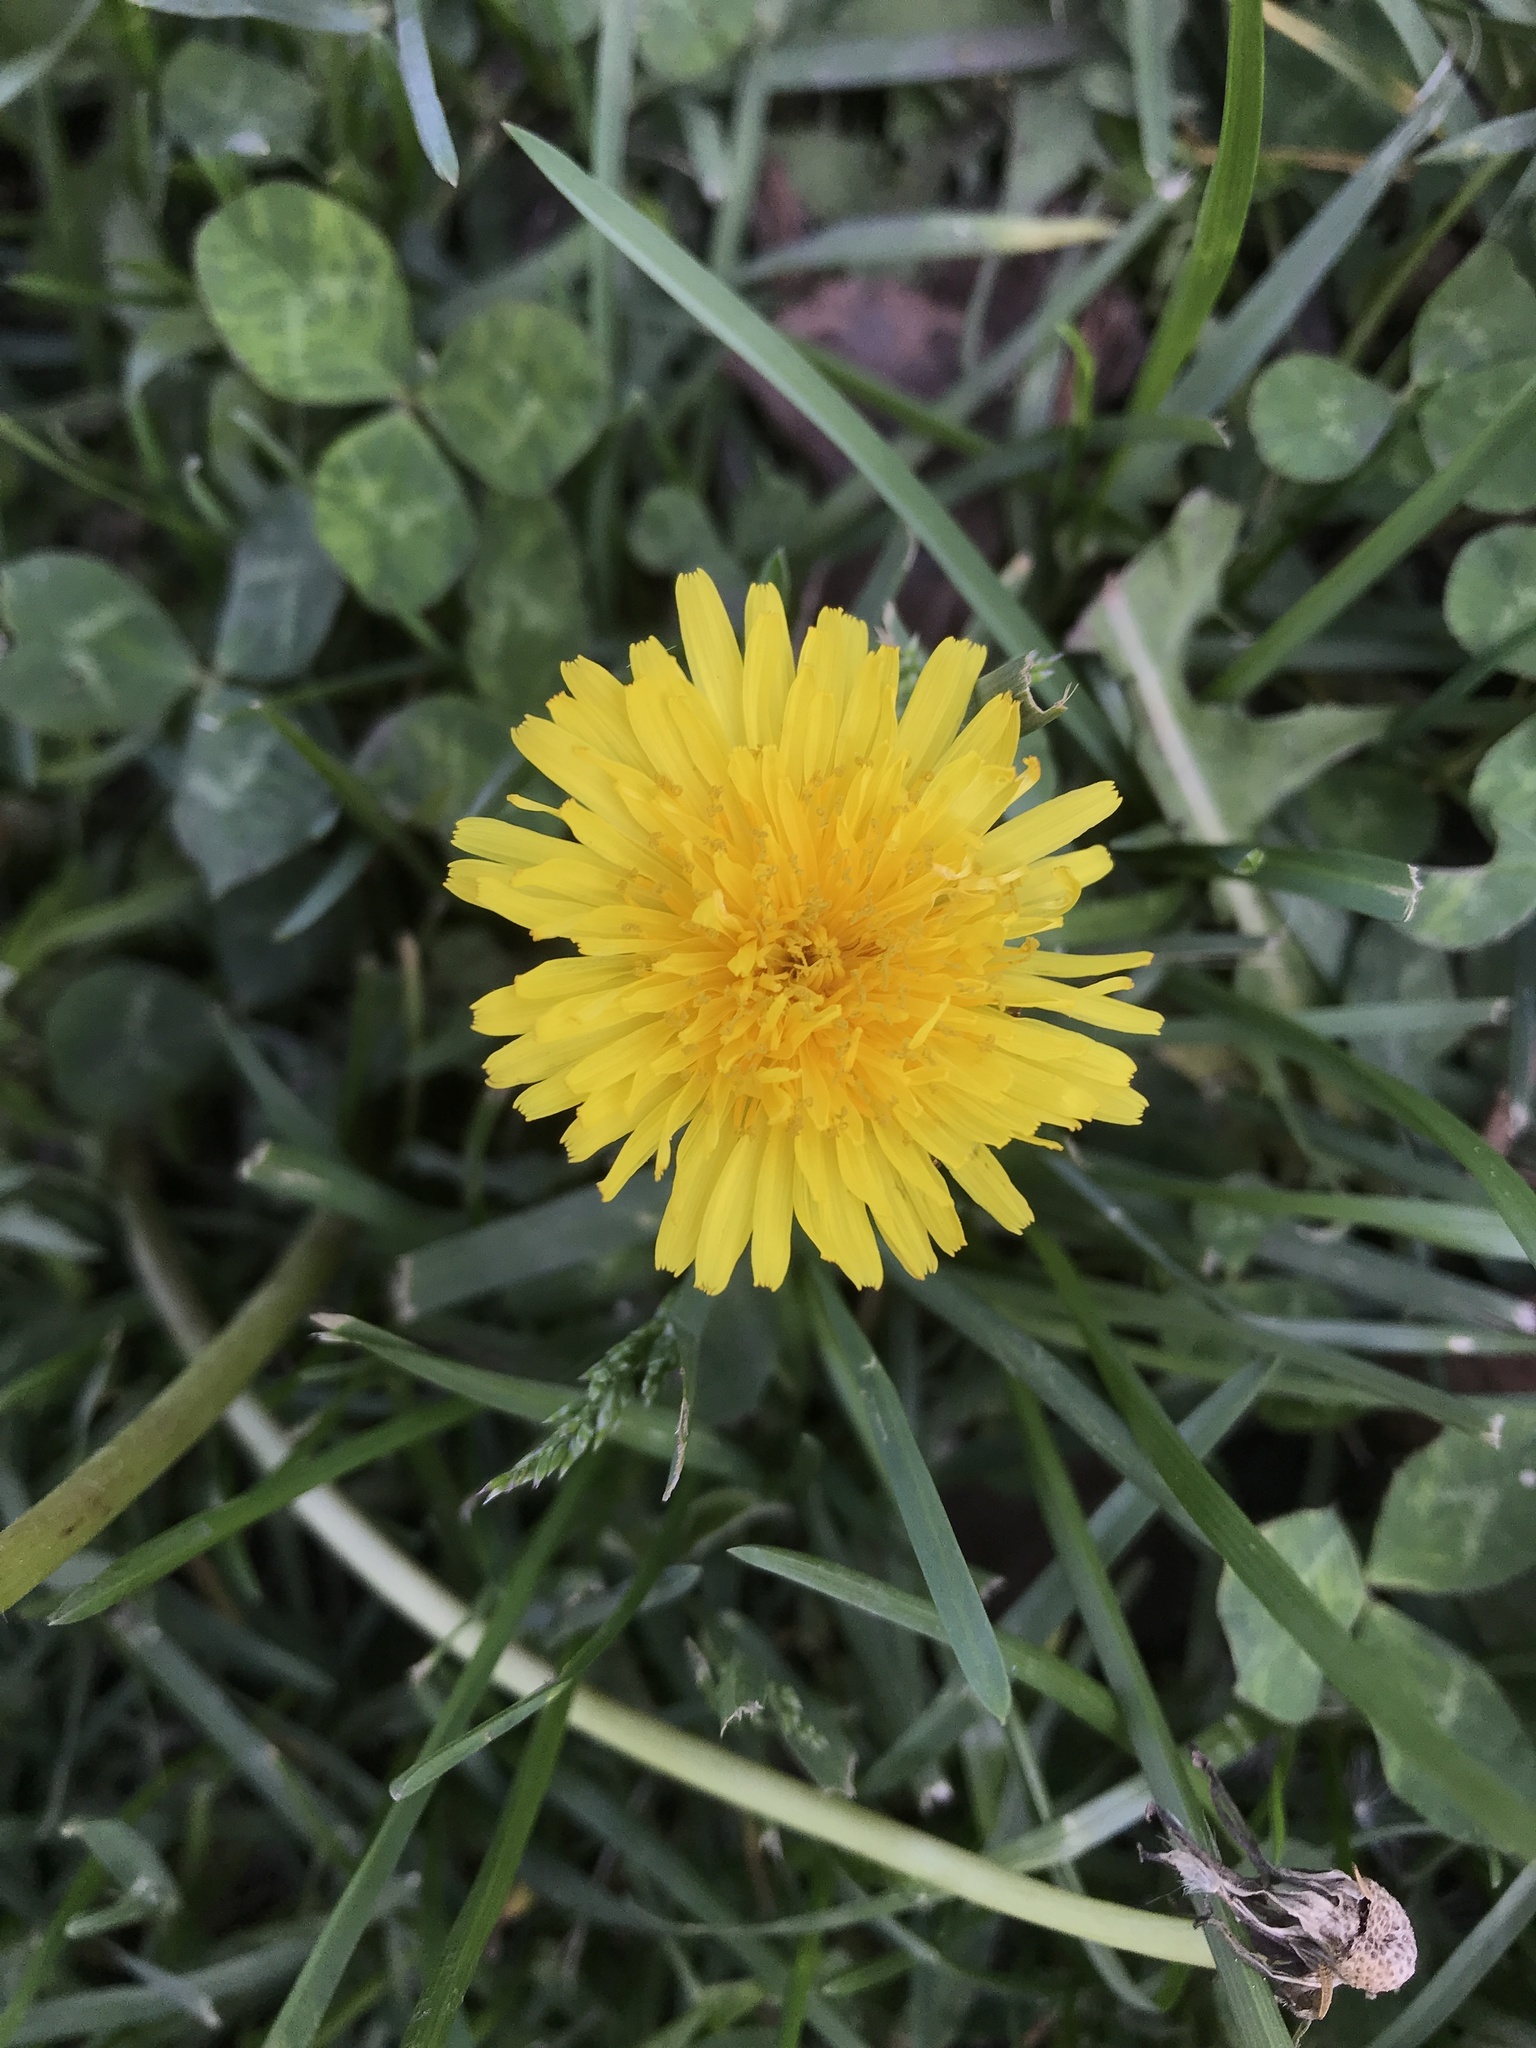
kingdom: Plantae
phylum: Tracheophyta
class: Magnoliopsida
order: Asterales
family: Asteraceae
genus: Taraxacum
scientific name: Taraxacum officinale
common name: Common dandelion
